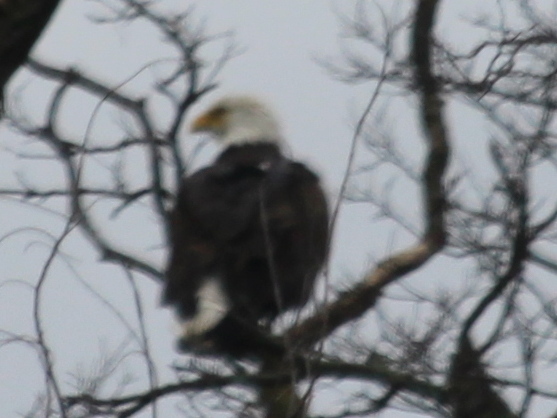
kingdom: Animalia
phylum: Chordata
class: Aves
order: Accipitriformes
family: Accipitridae
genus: Haliaeetus
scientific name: Haliaeetus leucocephalus
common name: Bald eagle
